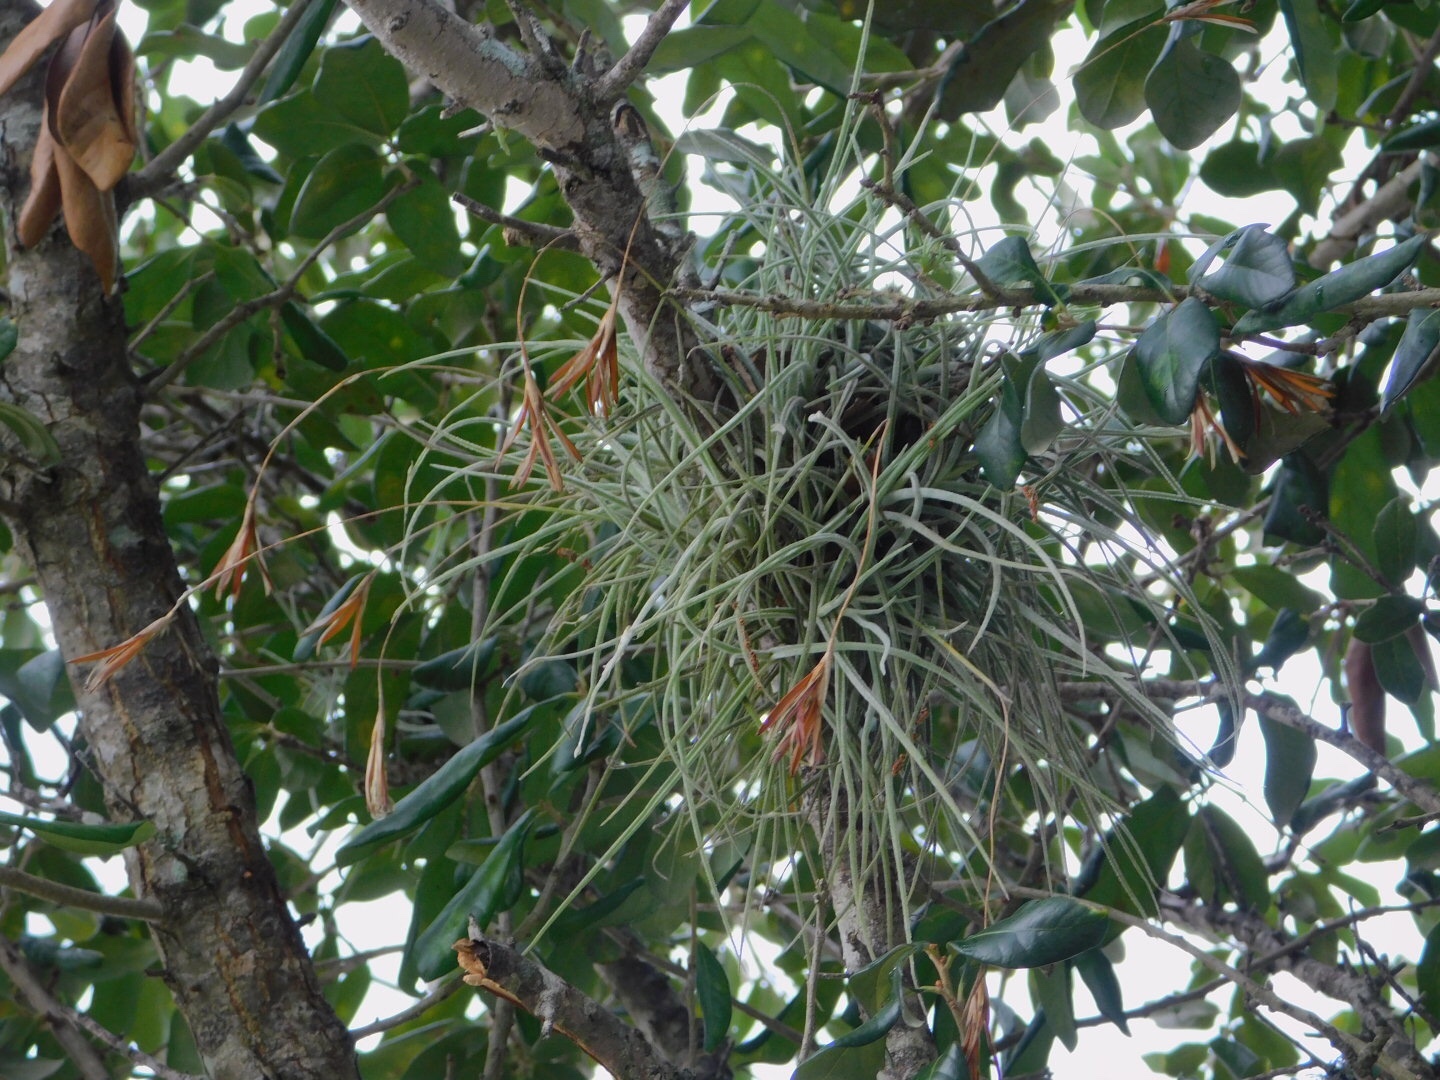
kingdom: Plantae
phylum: Tracheophyta
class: Liliopsida
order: Poales
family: Bromeliaceae
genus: Tillandsia
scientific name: Tillandsia recurvata
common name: Small ballmoss
